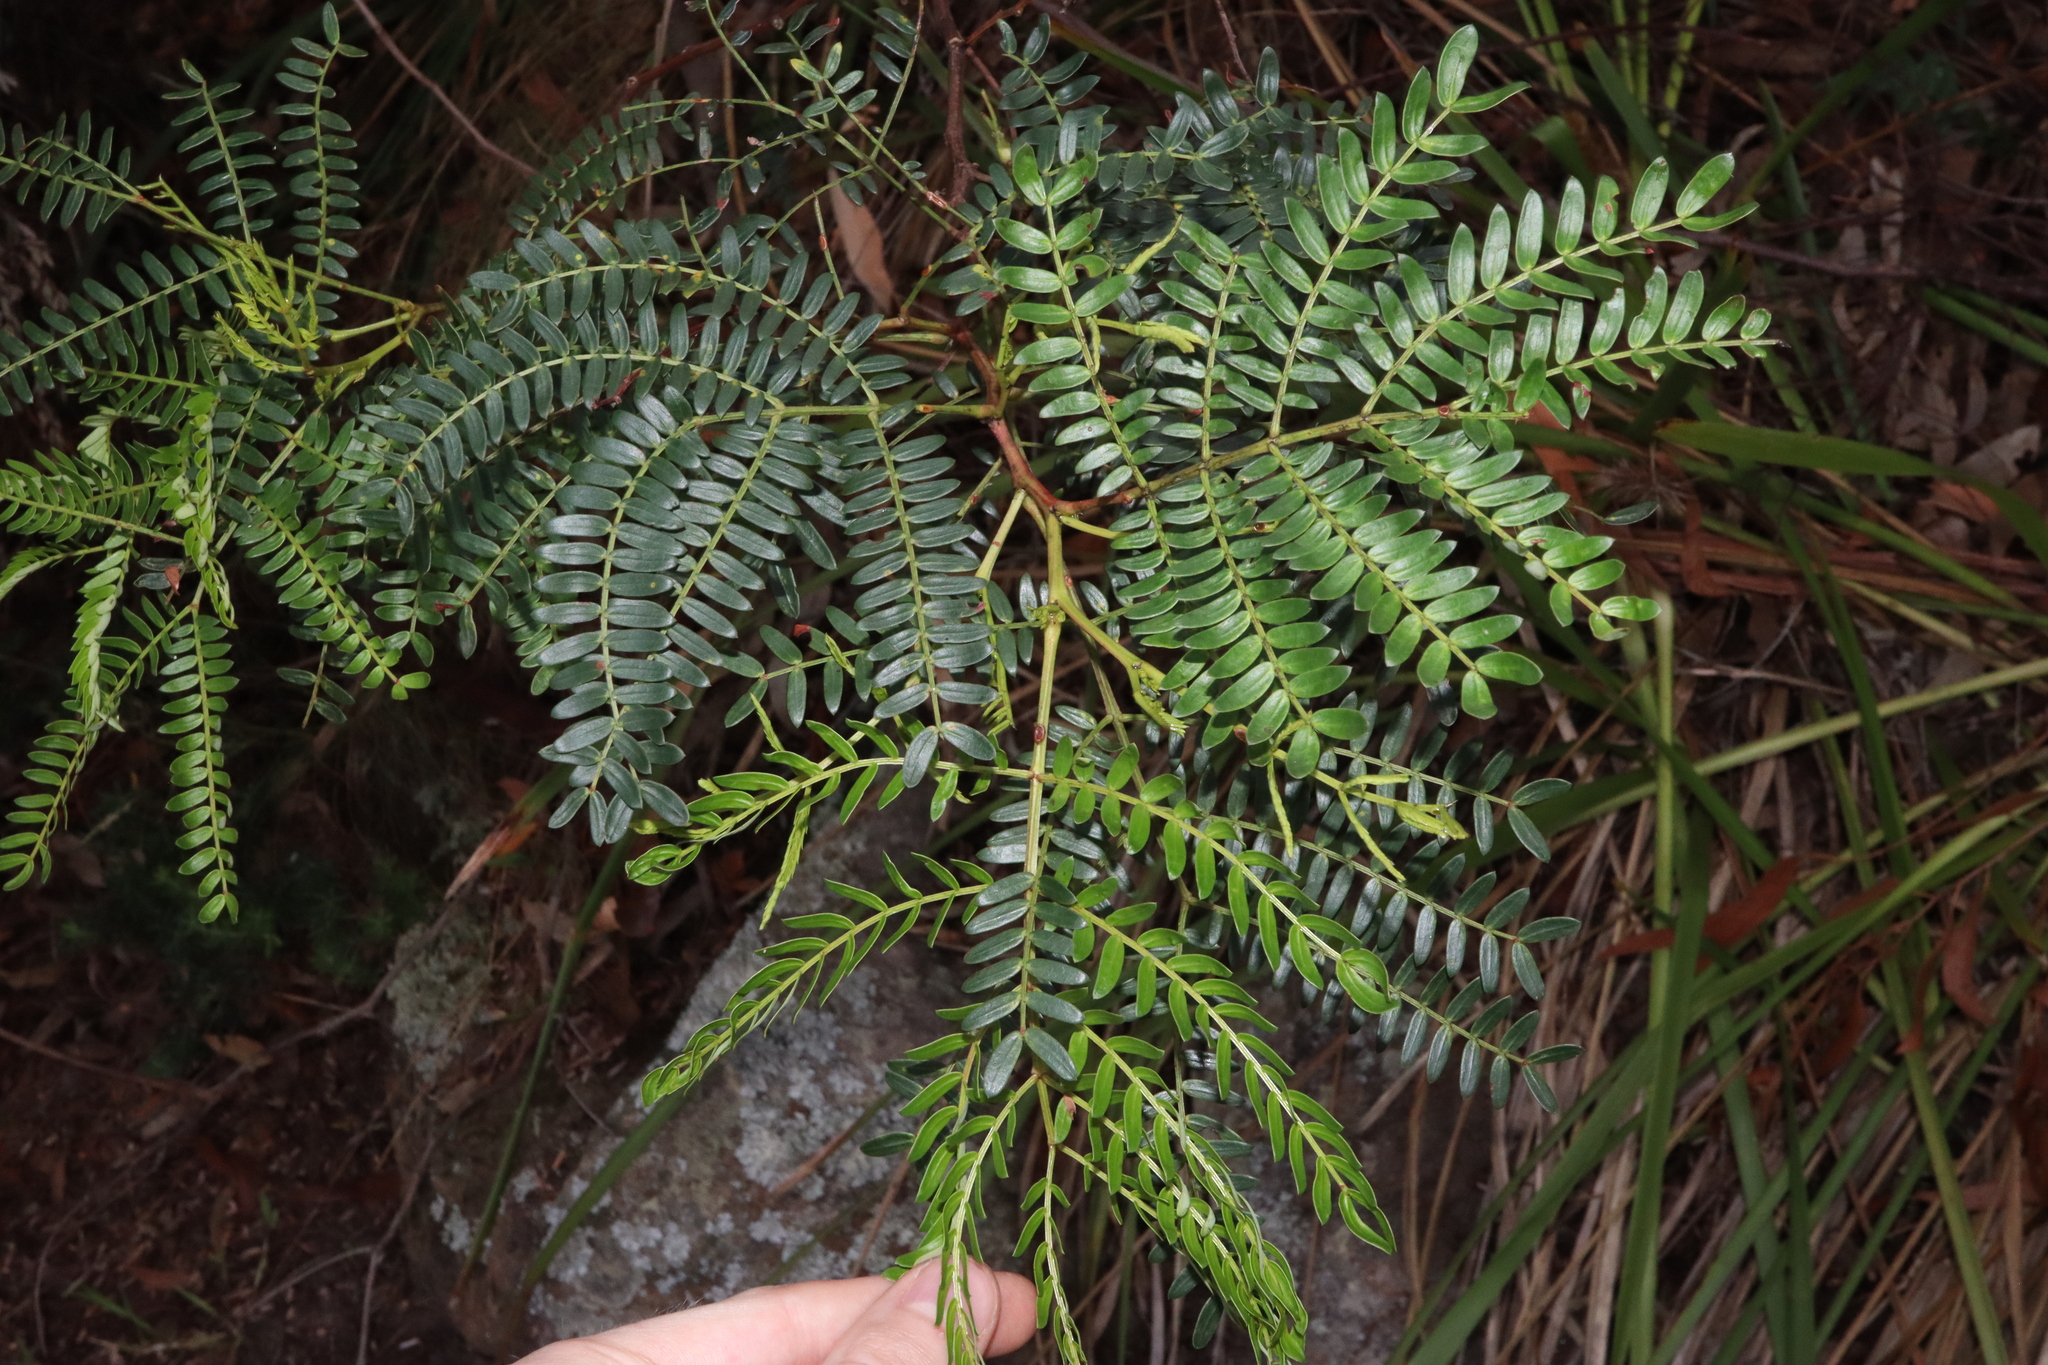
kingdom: Plantae
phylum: Tracheophyta
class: Magnoliopsida
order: Fabales
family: Fabaceae
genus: Acacia
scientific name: Acacia terminalis
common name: Cedar wattle
